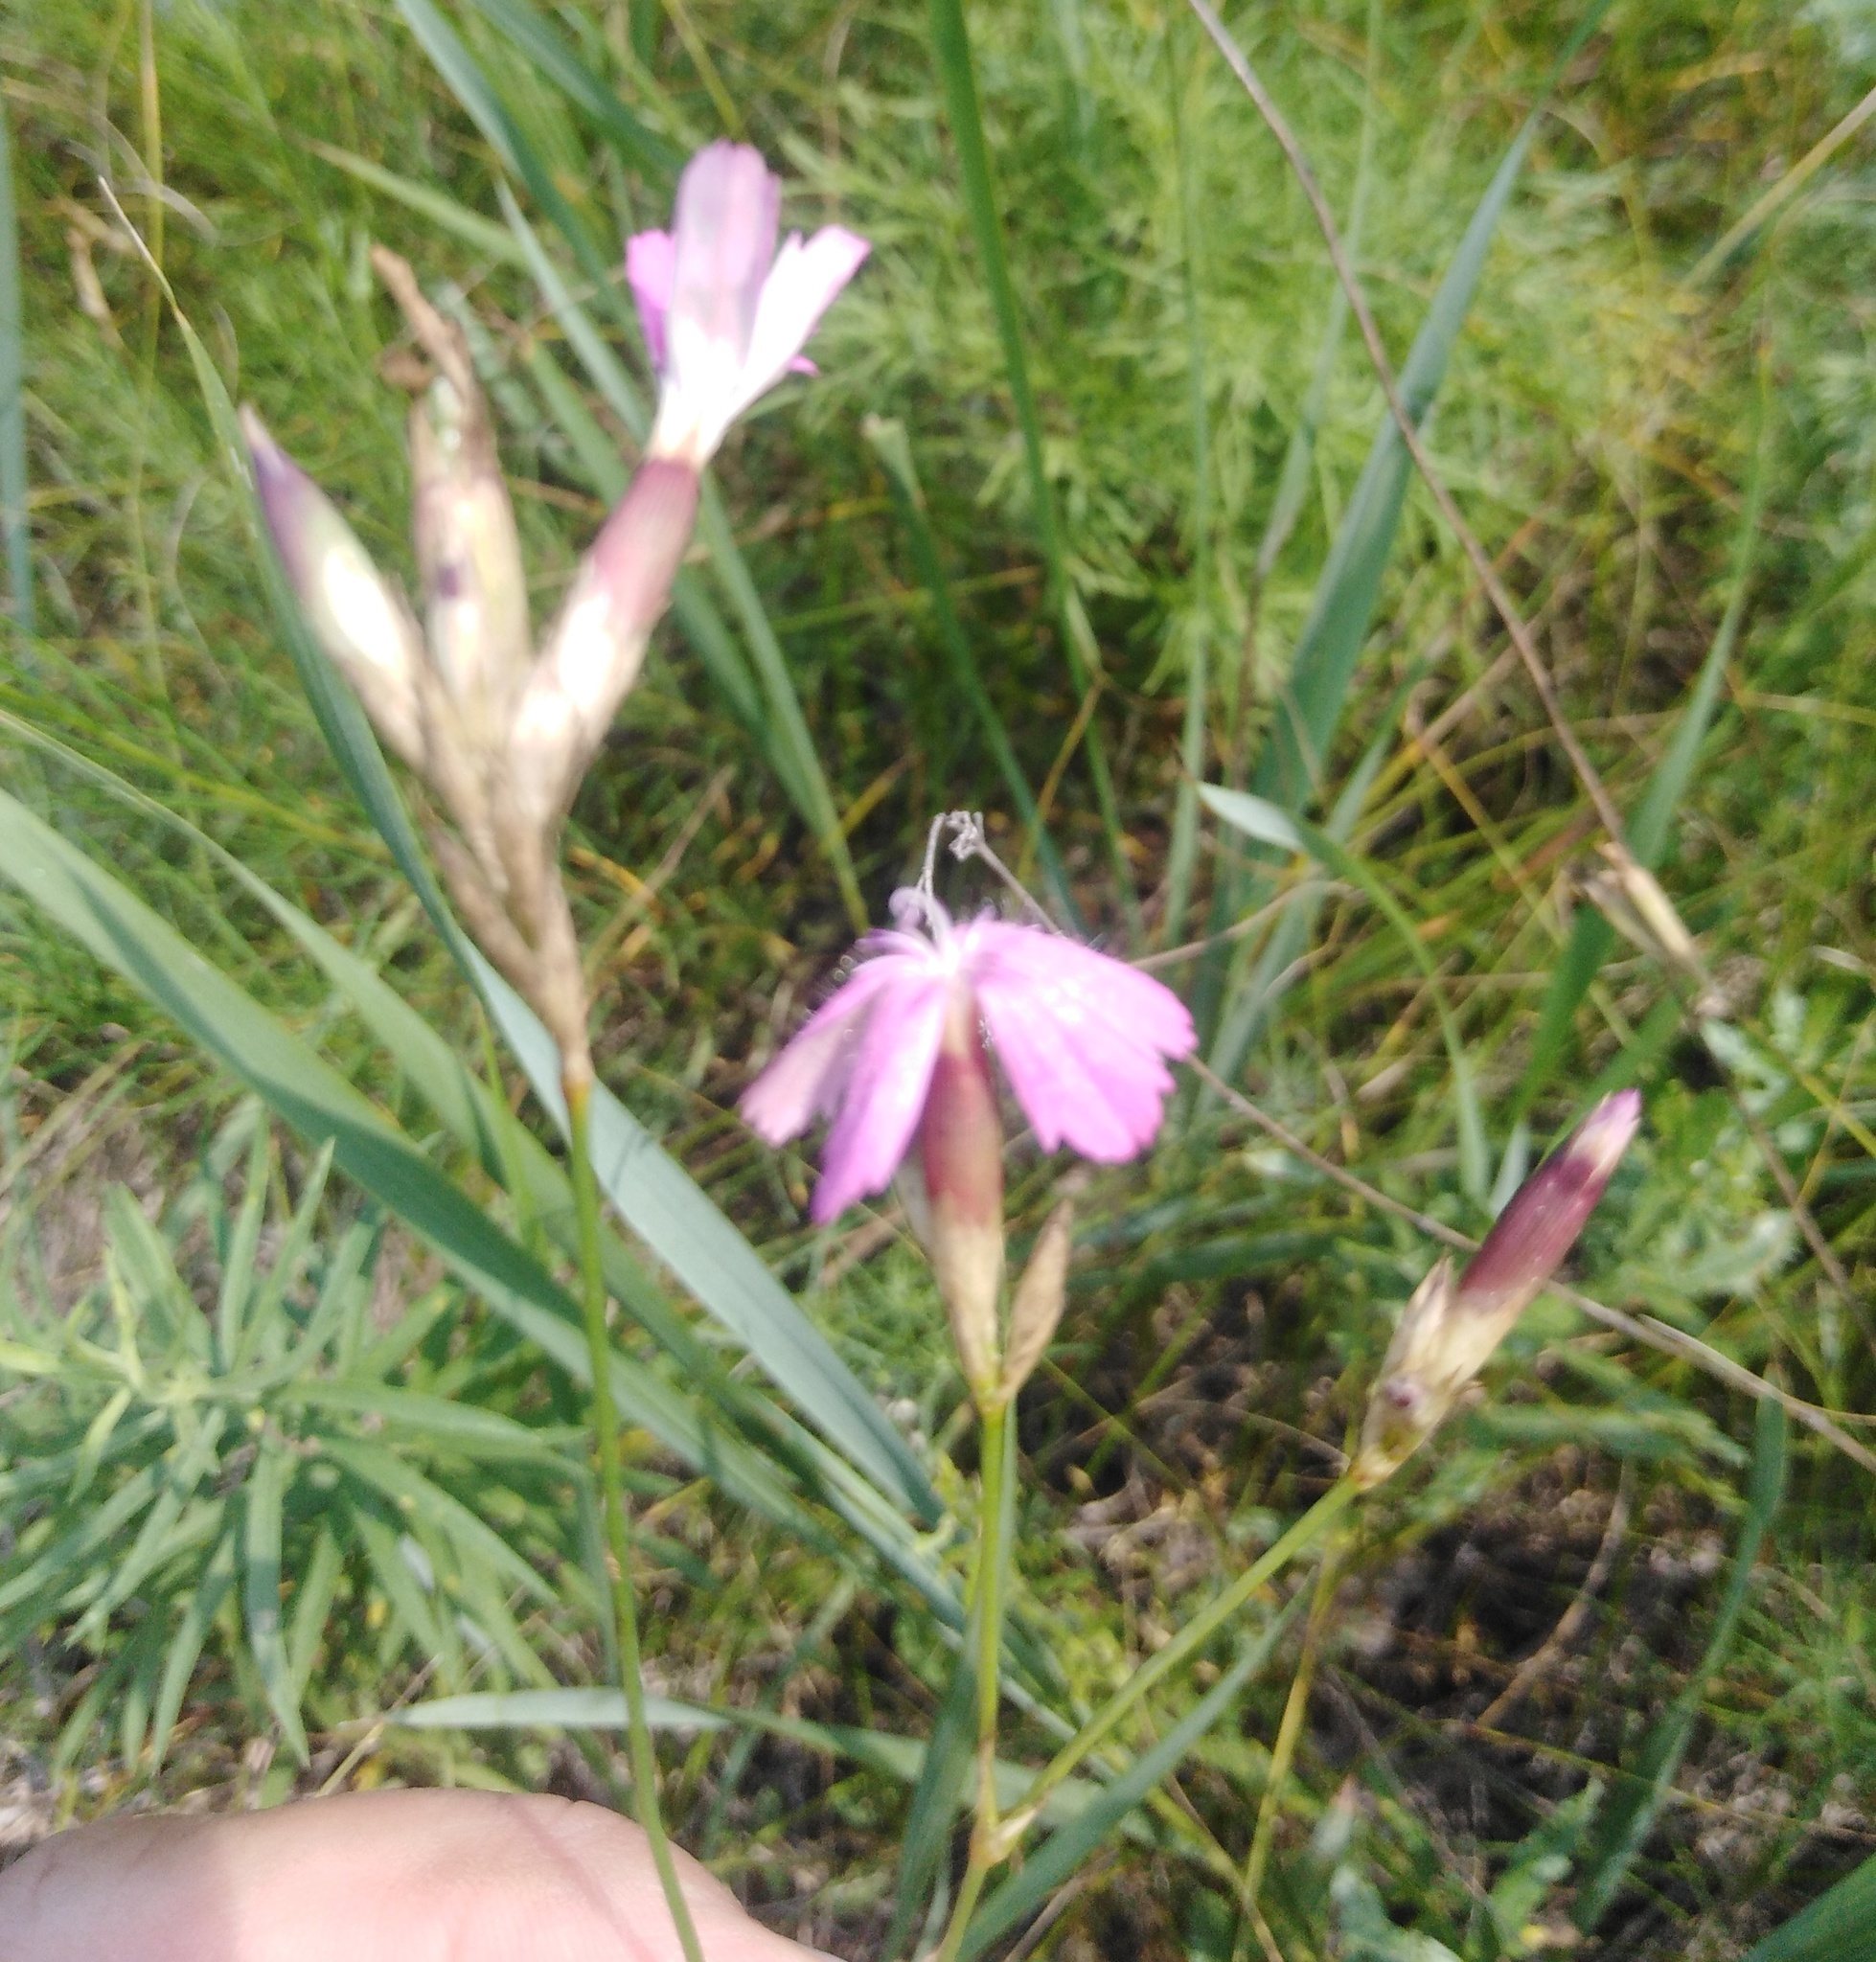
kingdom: Plantae
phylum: Tracheophyta
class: Magnoliopsida
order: Caryophyllales
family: Caryophyllaceae
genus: Dianthus
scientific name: Dianthus borbasii
